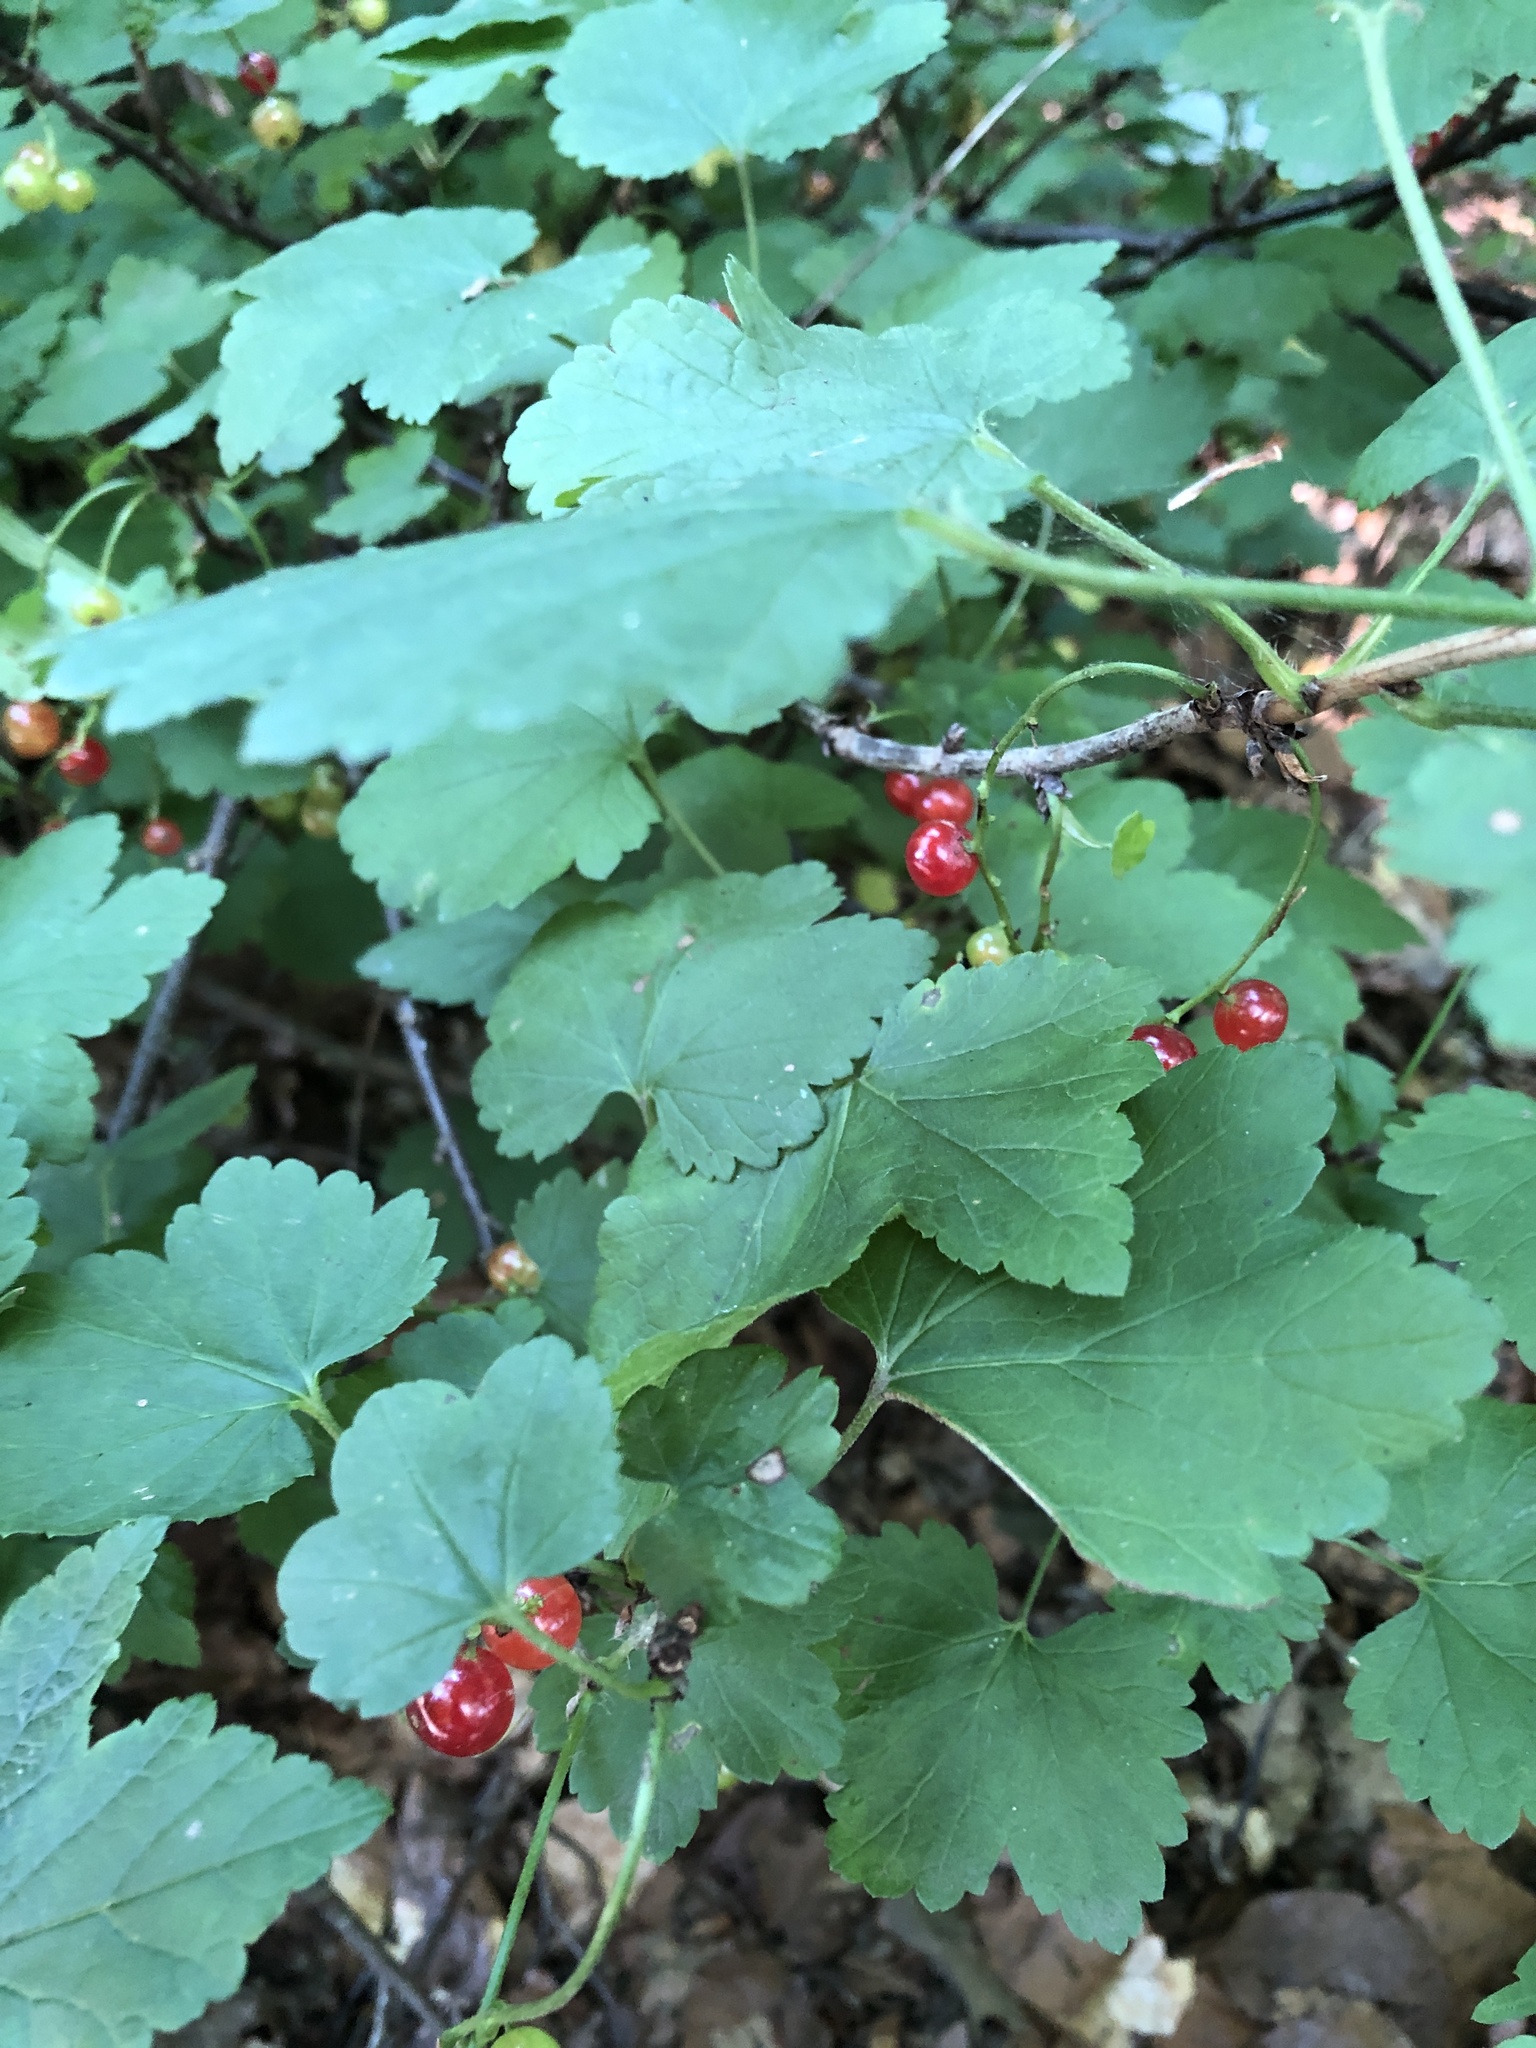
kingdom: Plantae
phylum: Tracheophyta
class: Magnoliopsida
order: Saxifragales
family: Grossulariaceae
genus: Ribes
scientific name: Ribes rubrum
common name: Red currant
